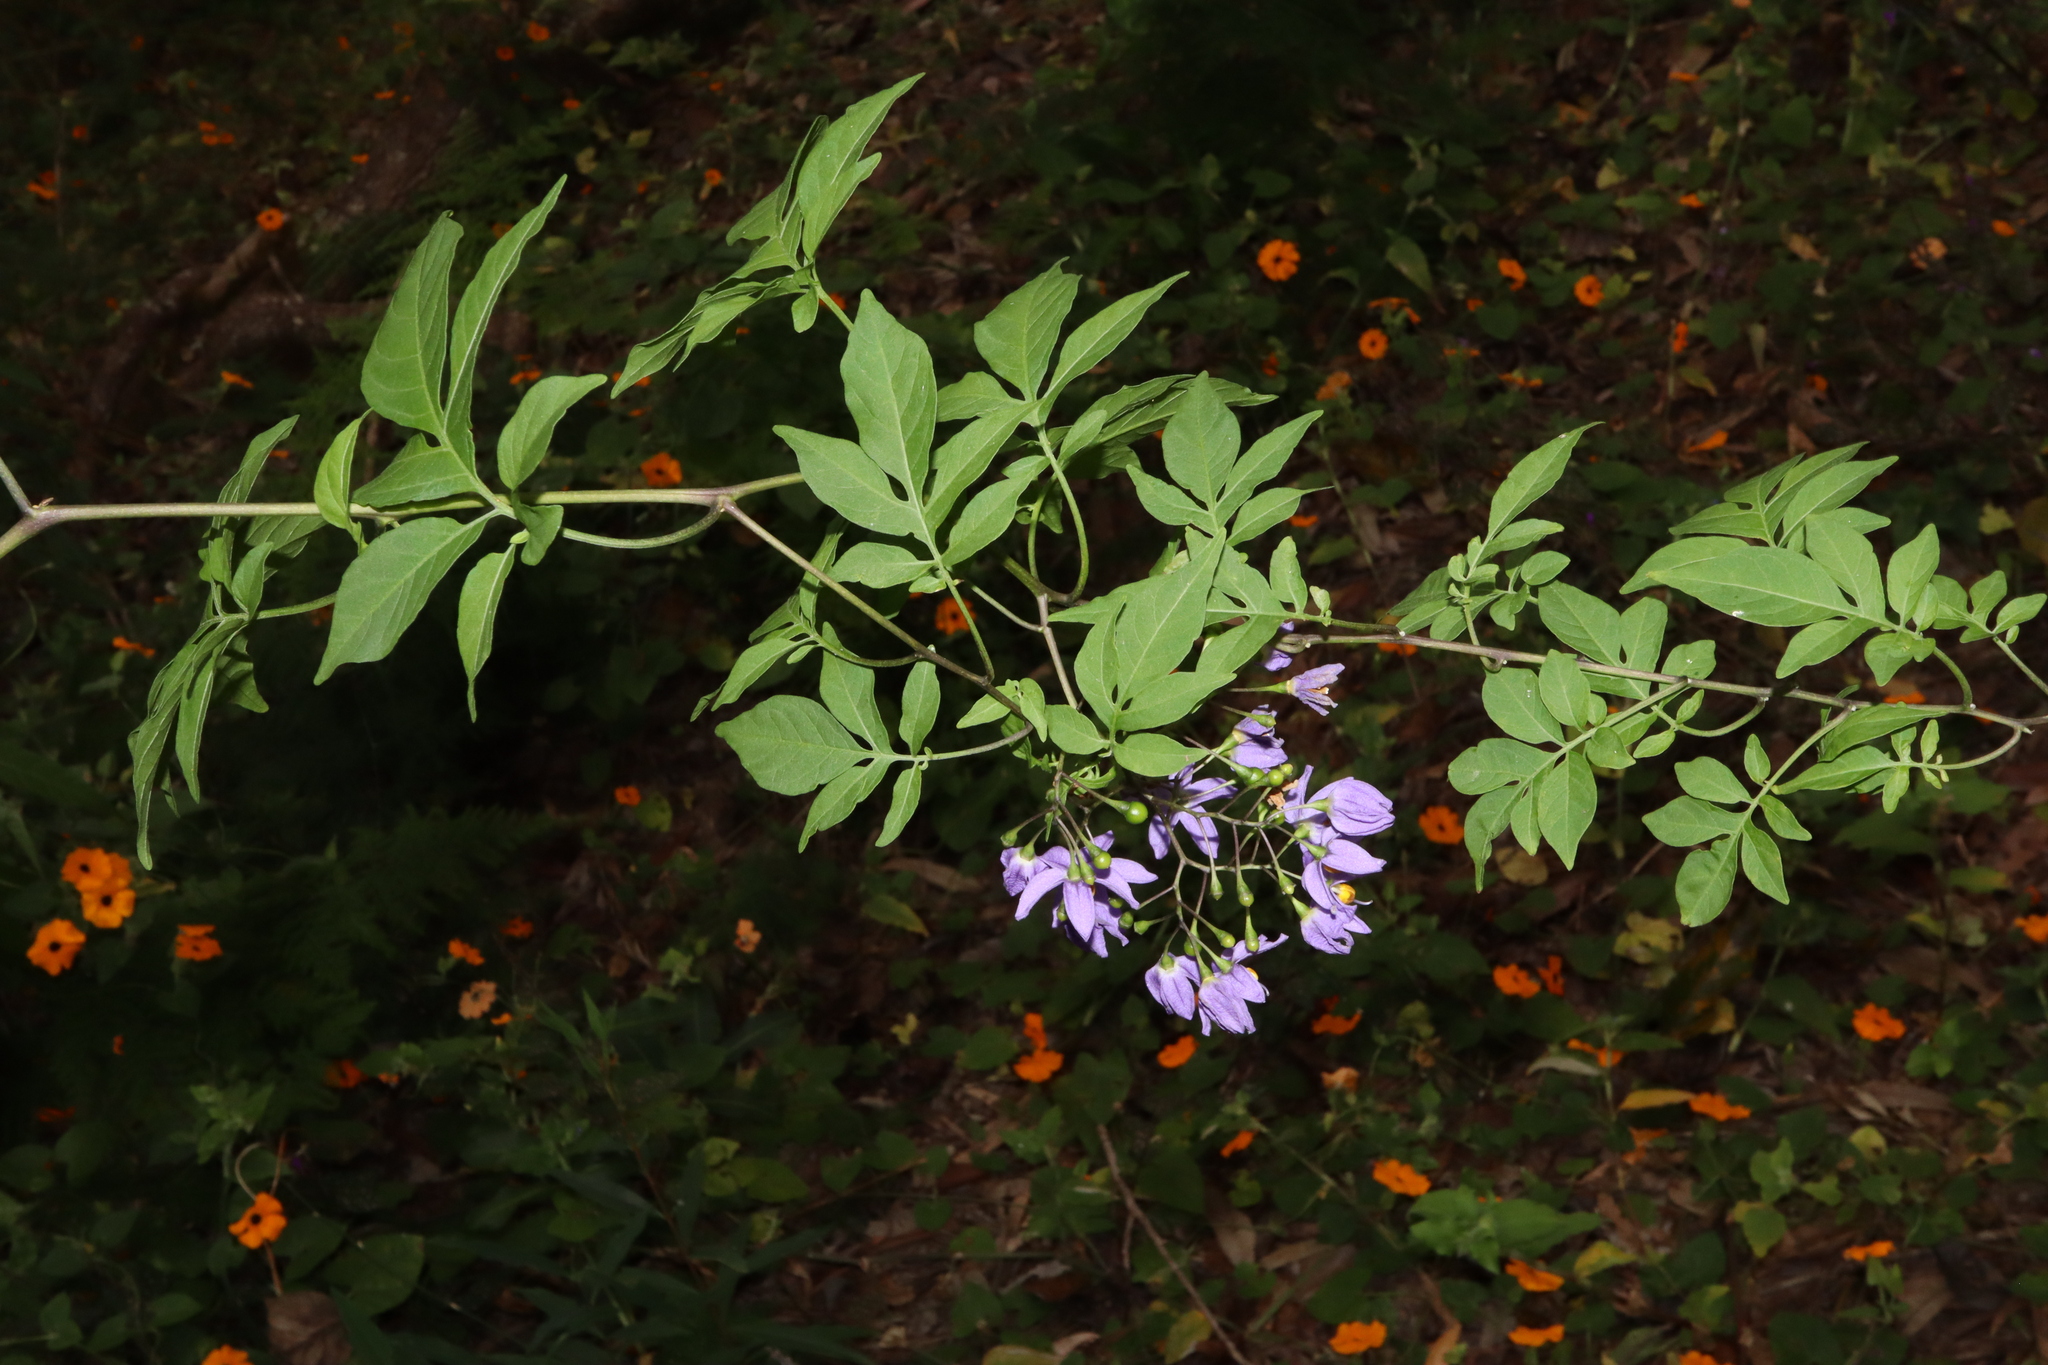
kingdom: Plantae
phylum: Tracheophyta
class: Magnoliopsida
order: Solanales
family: Solanaceae
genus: Solanum
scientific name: Solanum seaforthianum
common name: Brazilian nightshade
